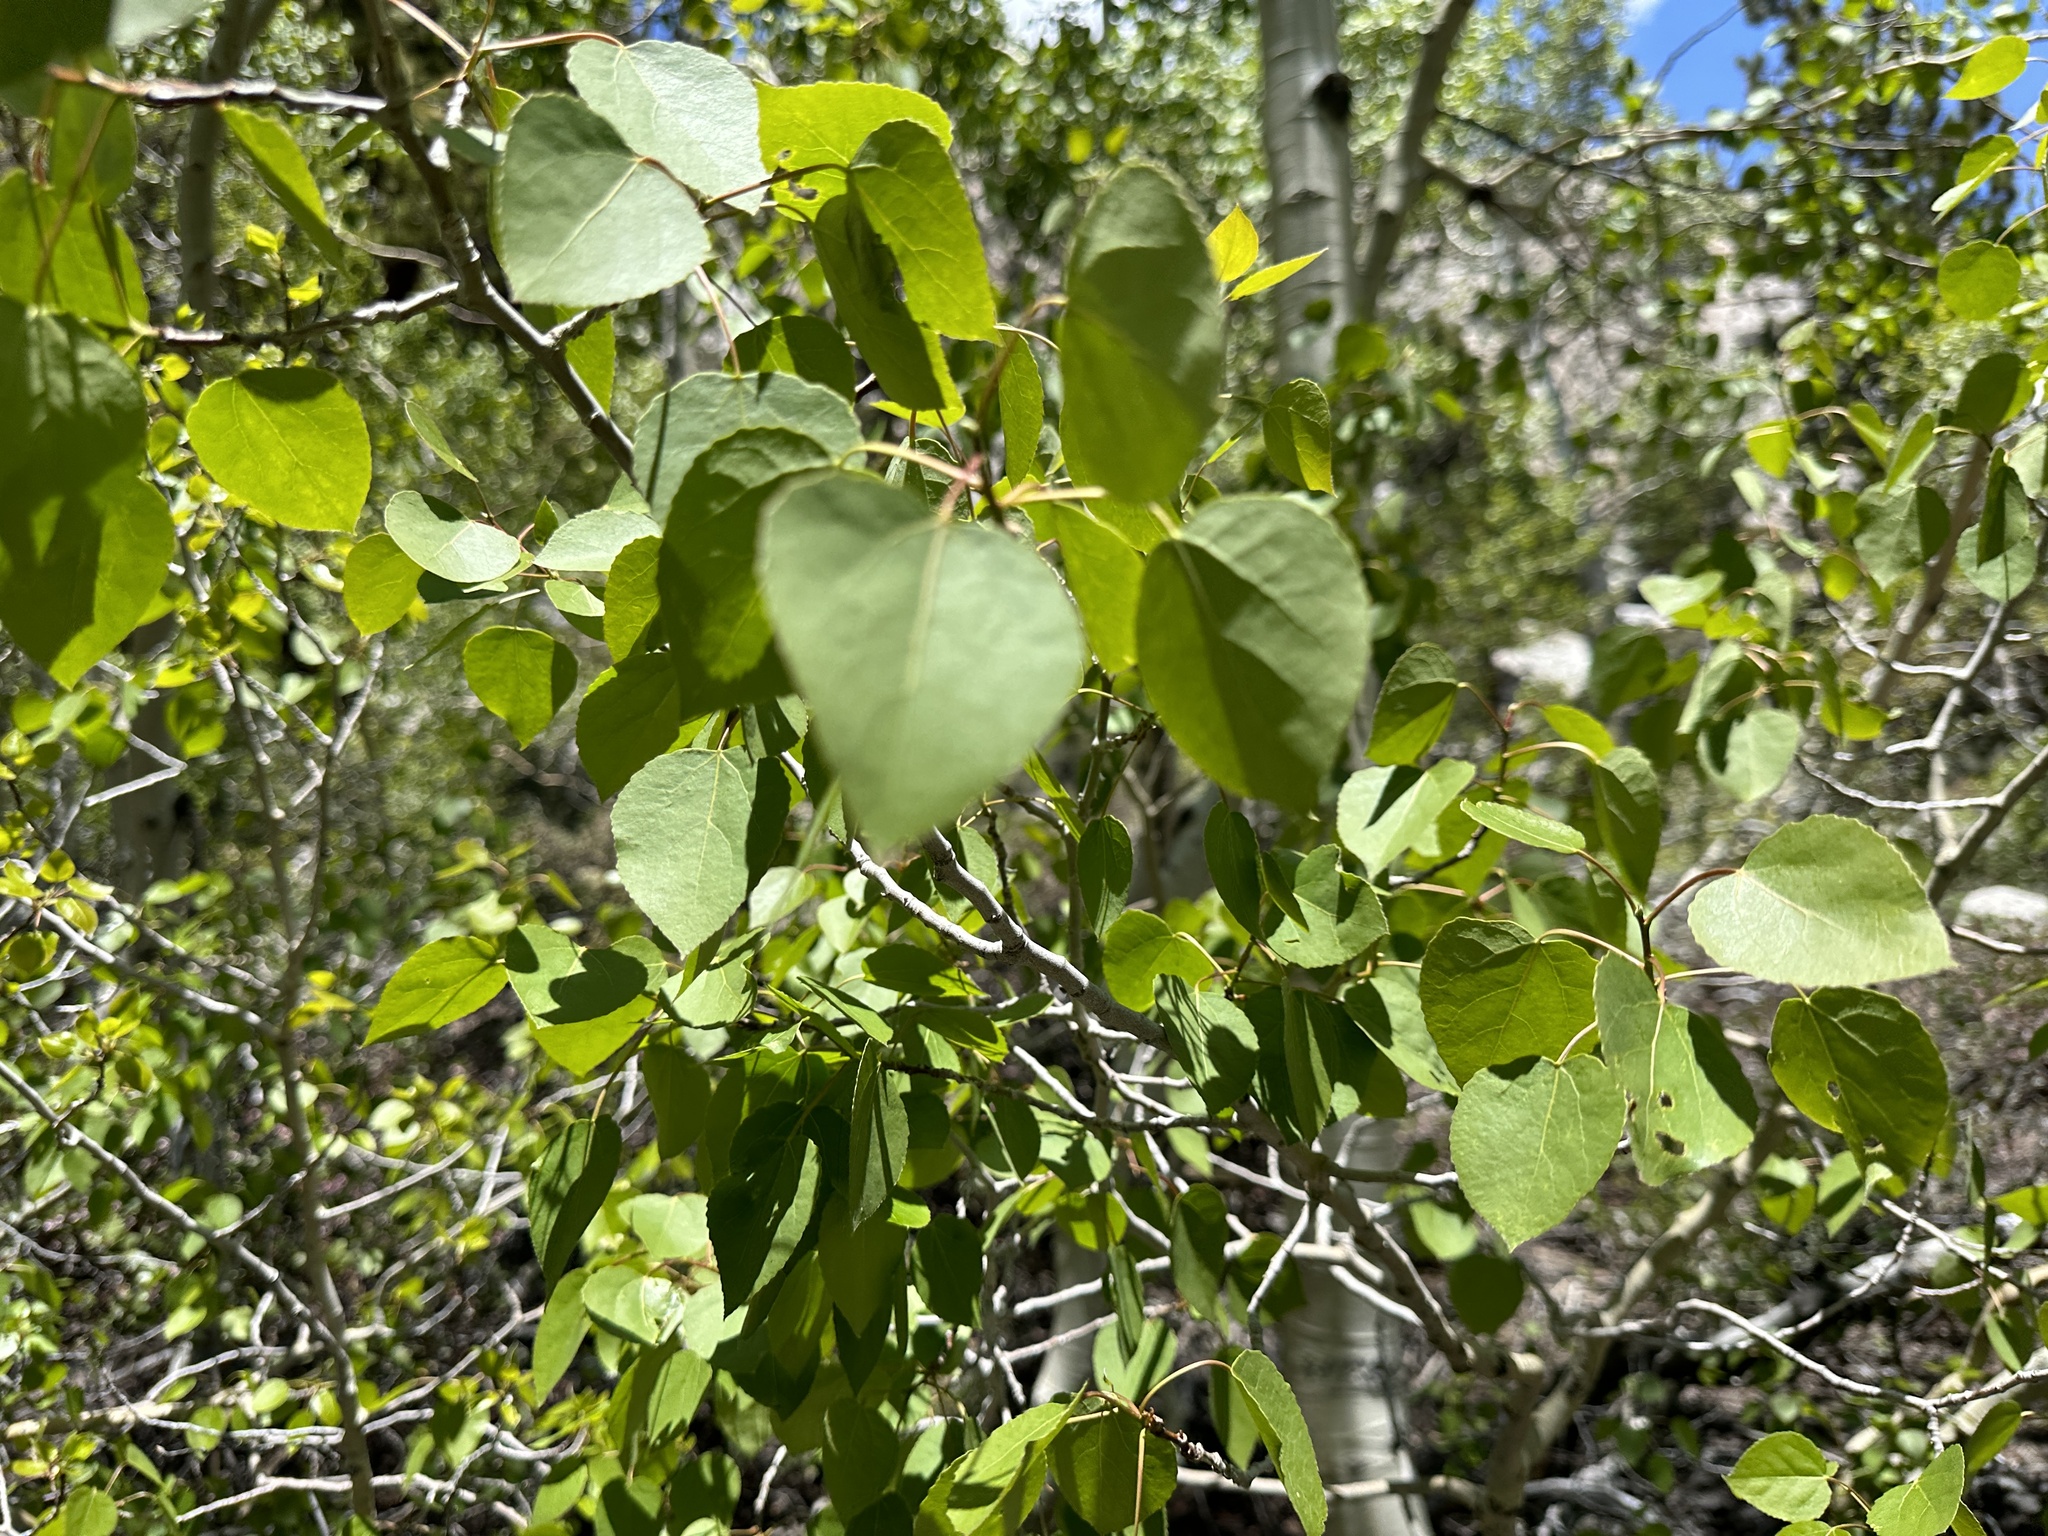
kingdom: Plantae
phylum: Tracheophyta
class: Magnoliopsida
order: Malpighiales
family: Salicaceae
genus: Populus
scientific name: Populus tremuloides
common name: Quaking aspen
